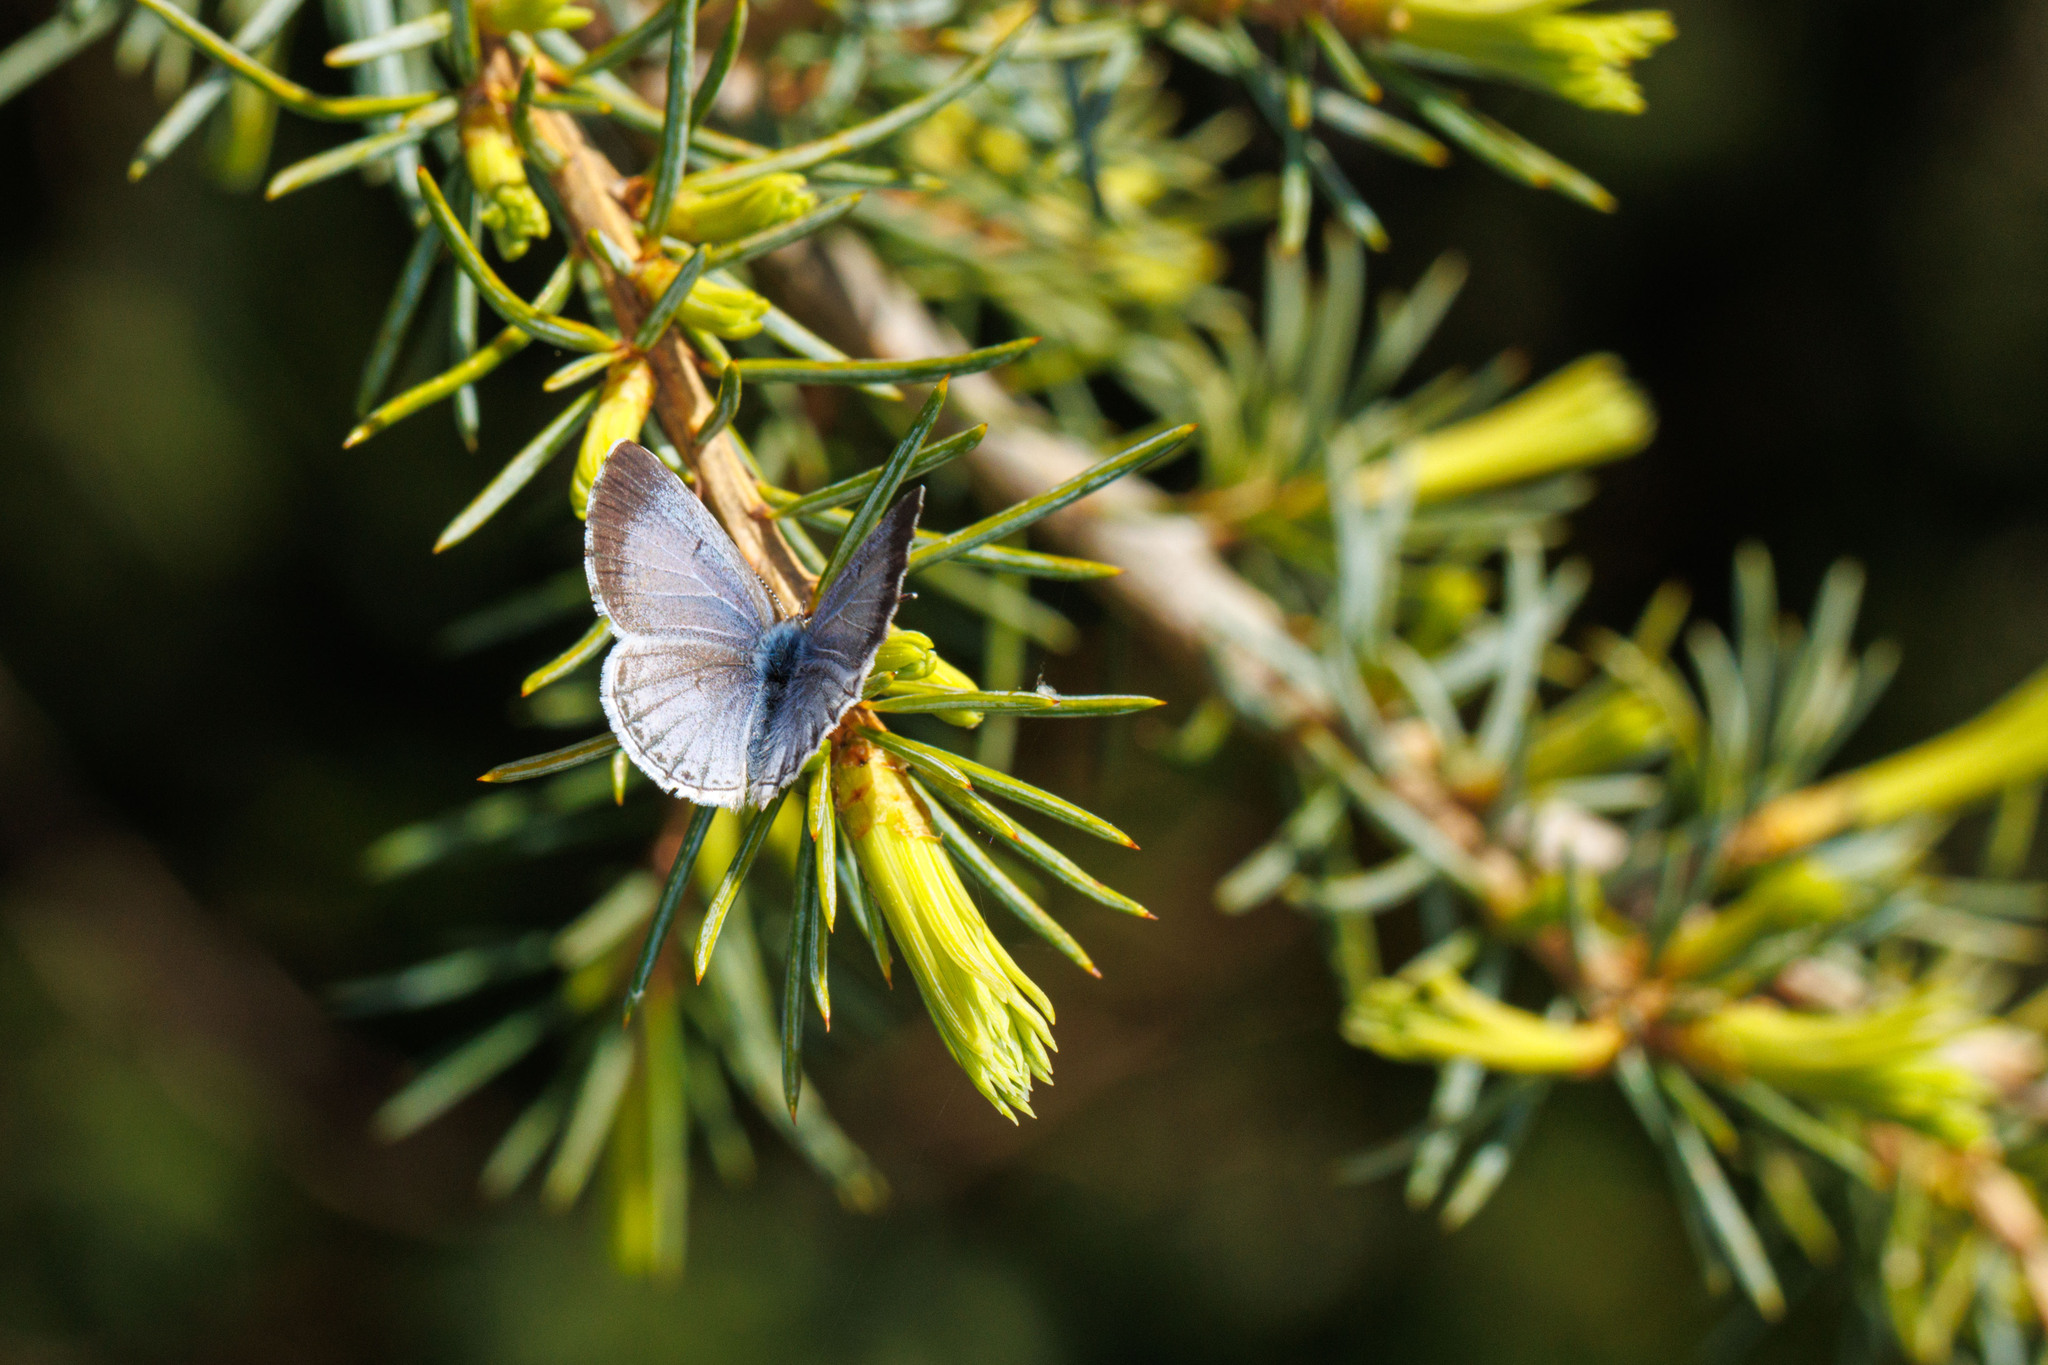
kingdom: Animalia
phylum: Arthropoda
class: Insecta
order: Lepidoptera
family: Lycaenidae
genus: Celastrina
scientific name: Celastrina ladon
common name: Spring azure
